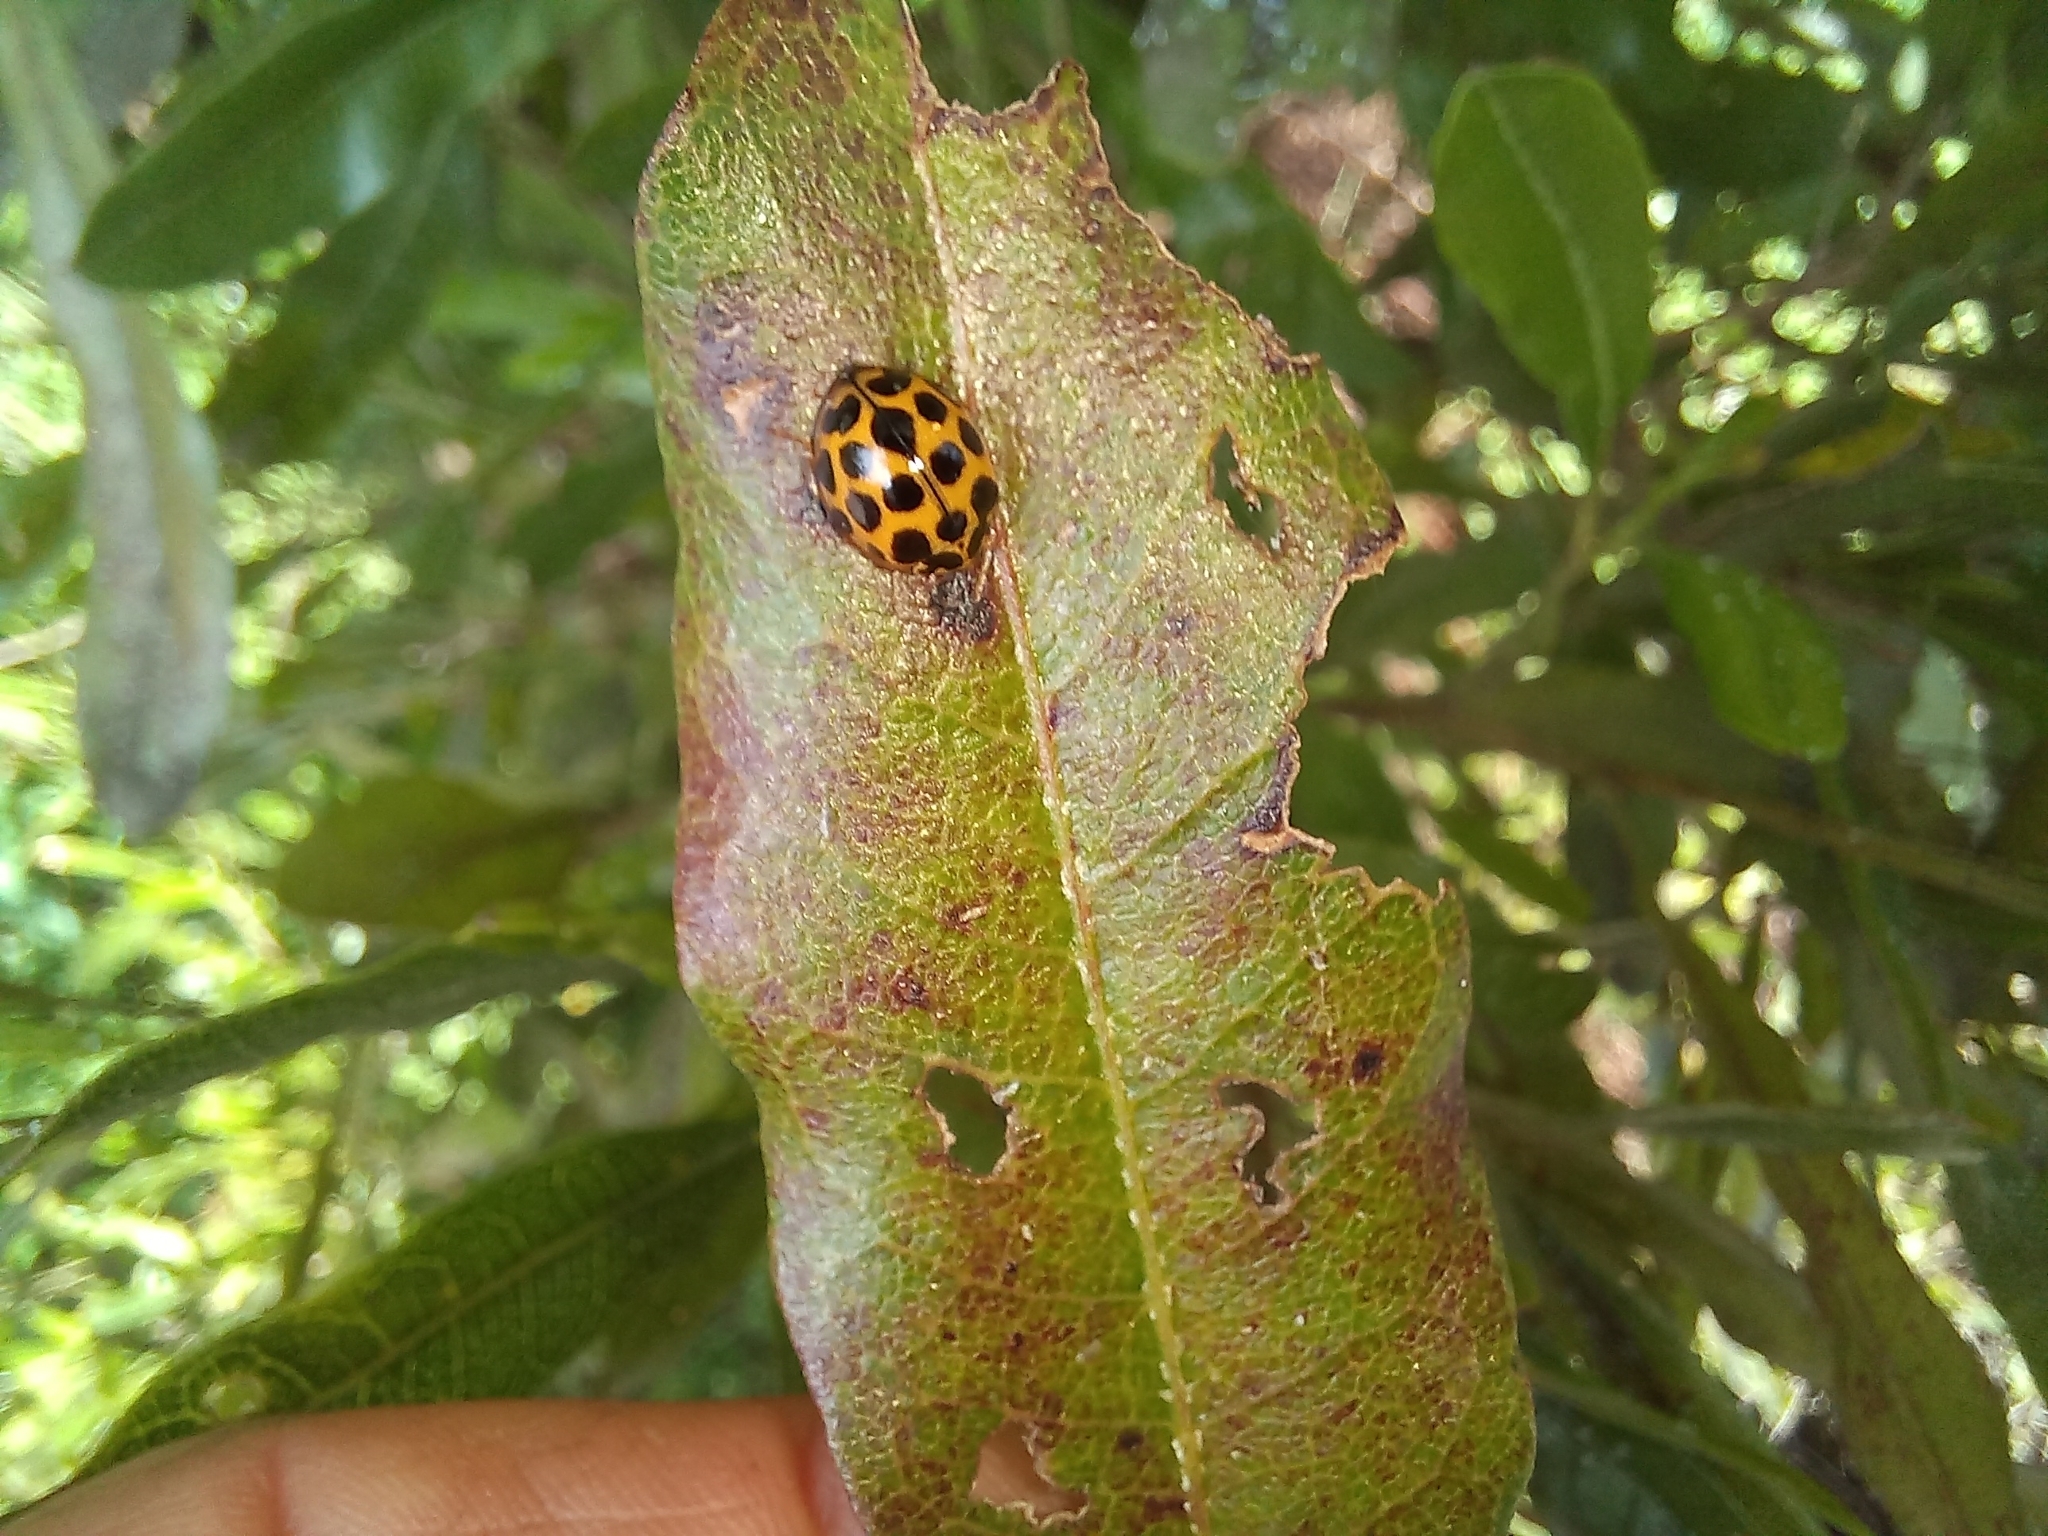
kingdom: Animalia
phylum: Arthropoda
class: Insecta
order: Coleoptera
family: Coccinellidae
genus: Harmonia
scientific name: Harmonia conformis
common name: Common spotted ladybird beetle
